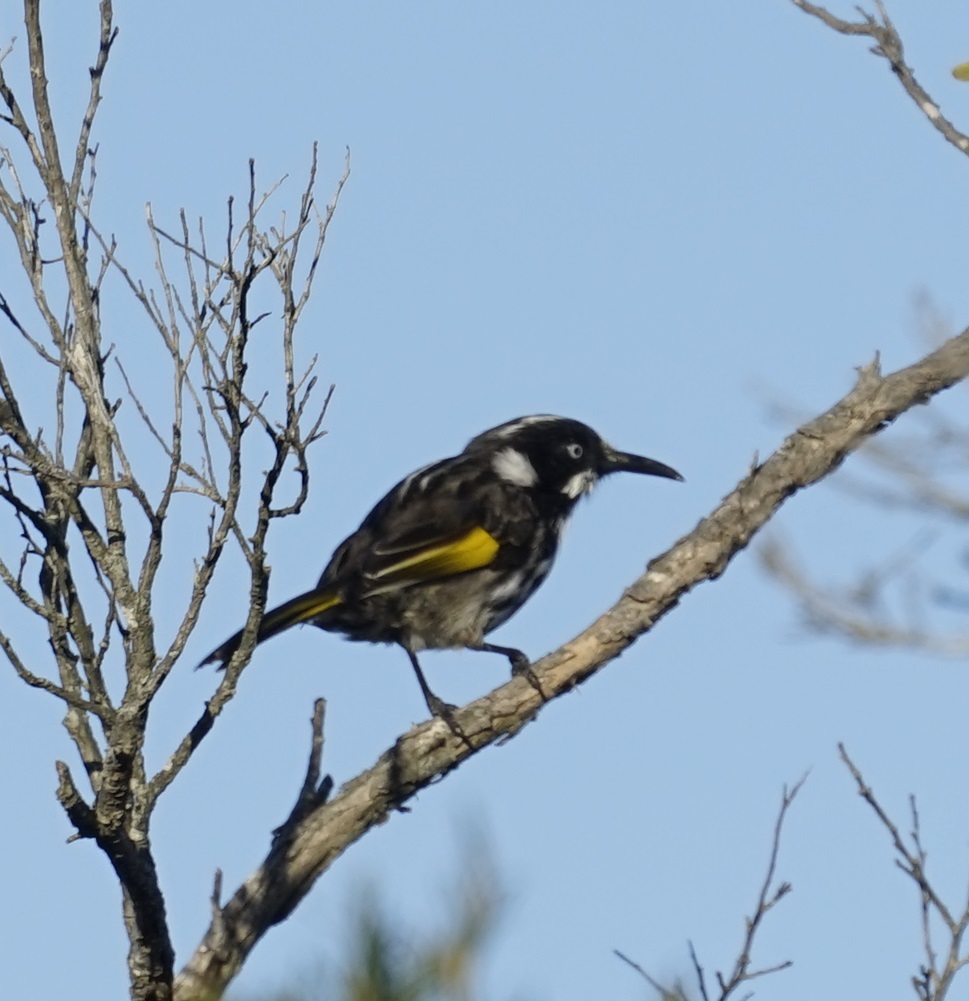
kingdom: Animalia
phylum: Chordata
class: Aves
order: Passeriformes
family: Meliphagidae
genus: Phylidonyris
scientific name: Phylidonyris novaehollandiae
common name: New holland honeyeater
